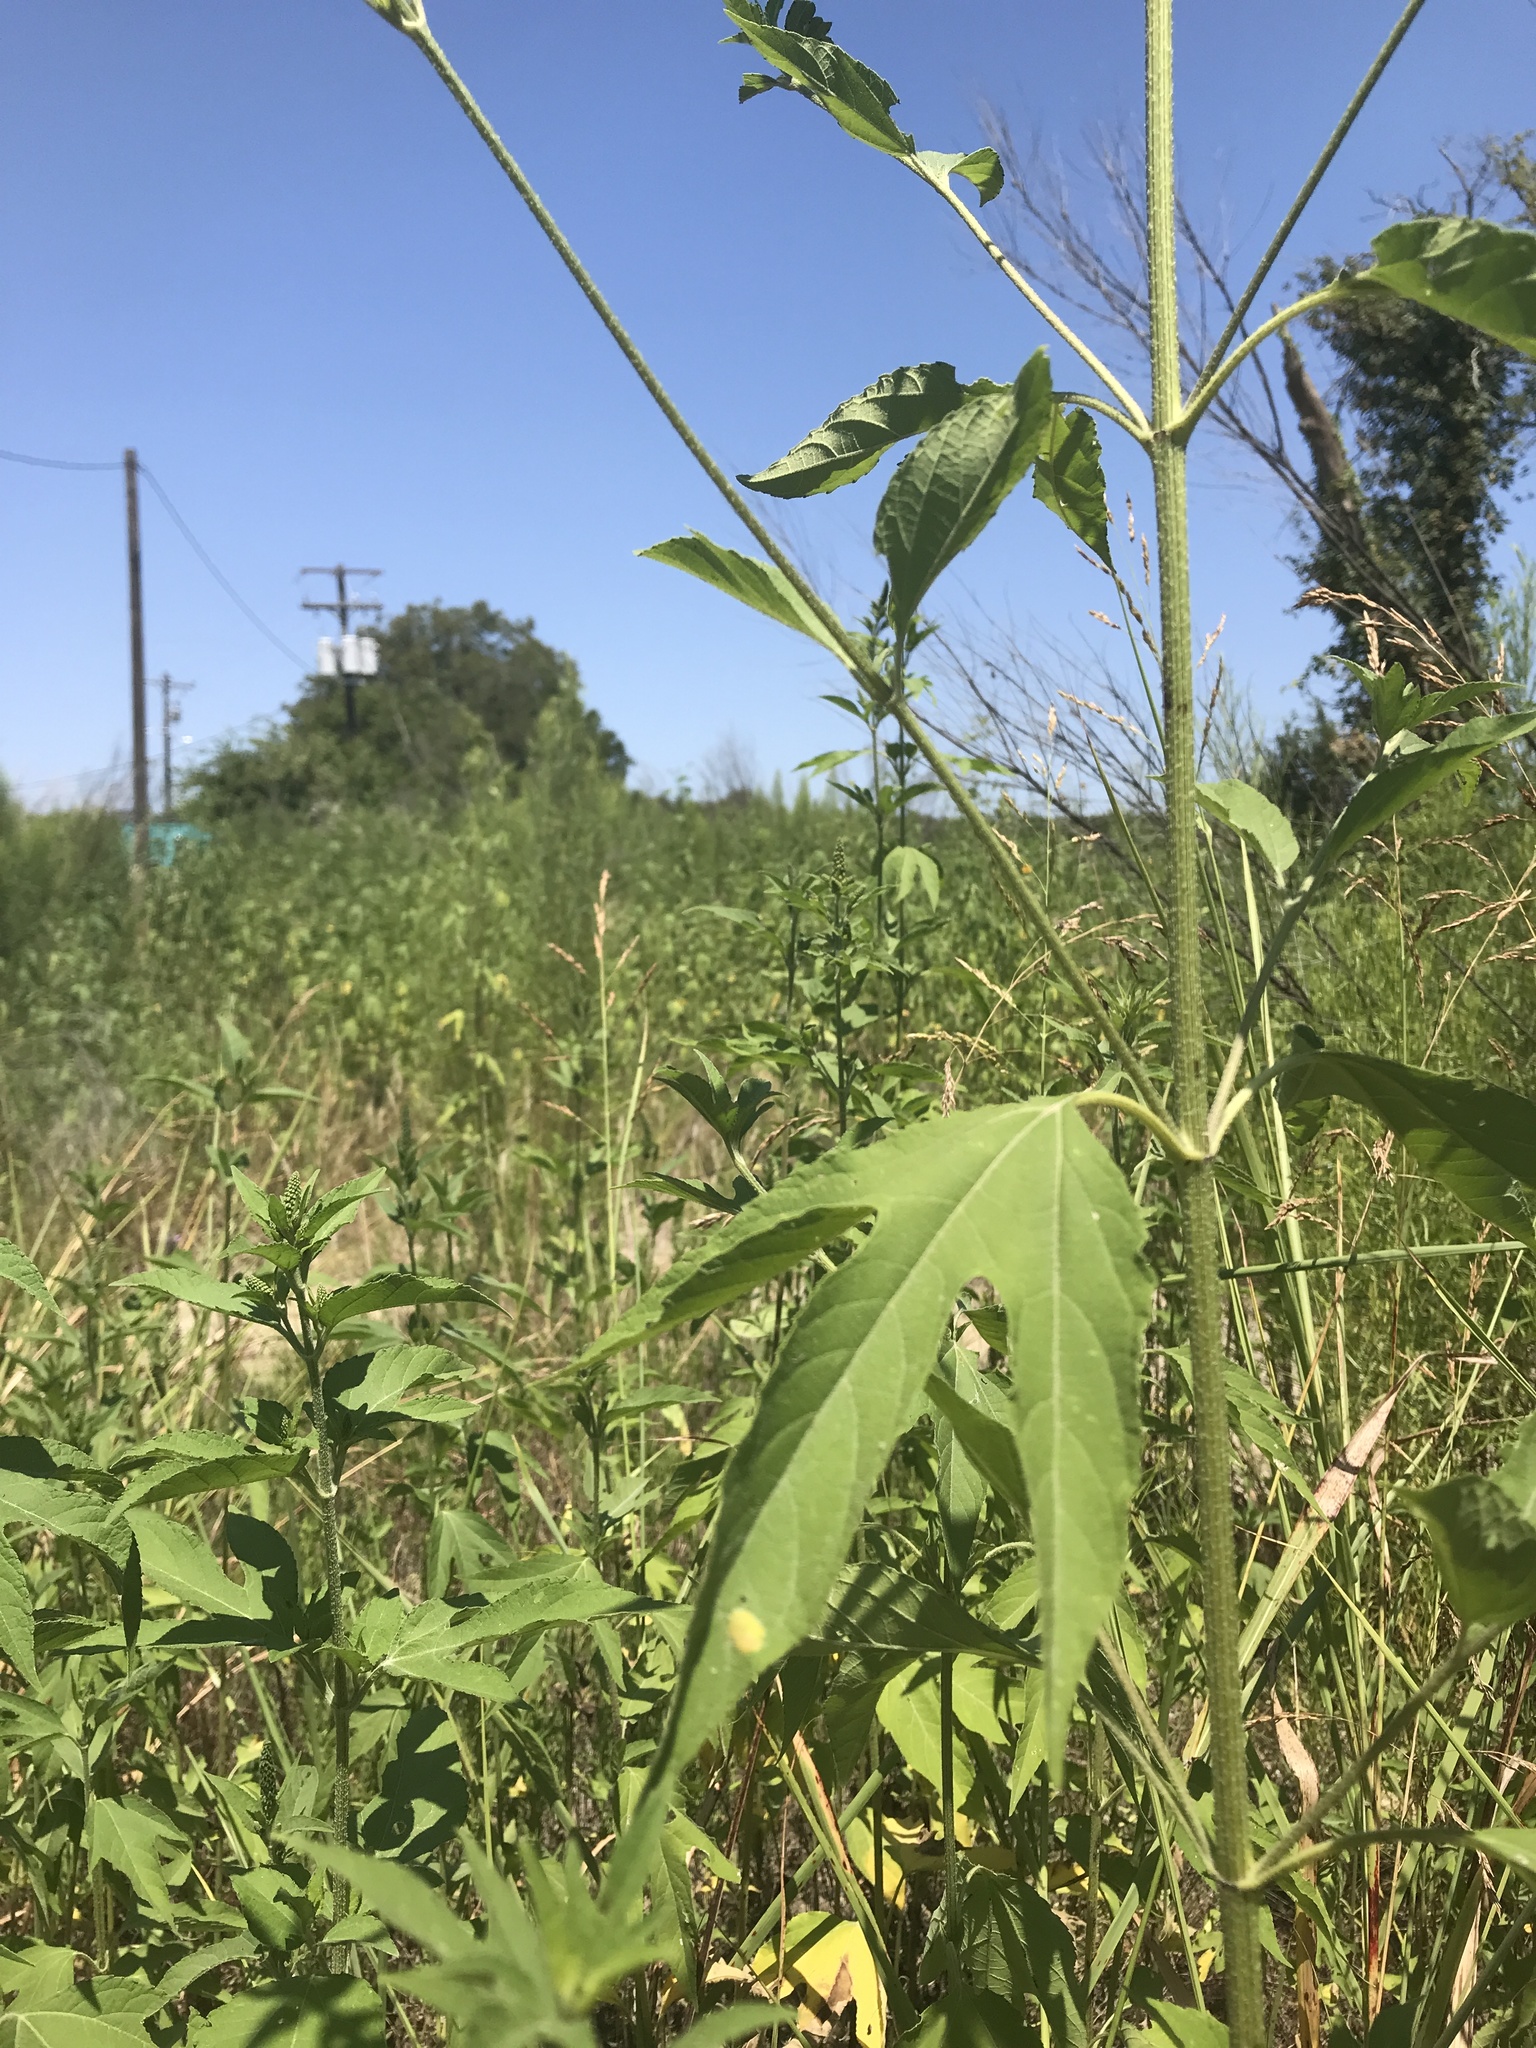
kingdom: Plantae
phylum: Tracheophyta
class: Magnoliopsida
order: Asterales
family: Asteraceae
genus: Ambrosia
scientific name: Ambrosia trifida
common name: Giant ragweed
